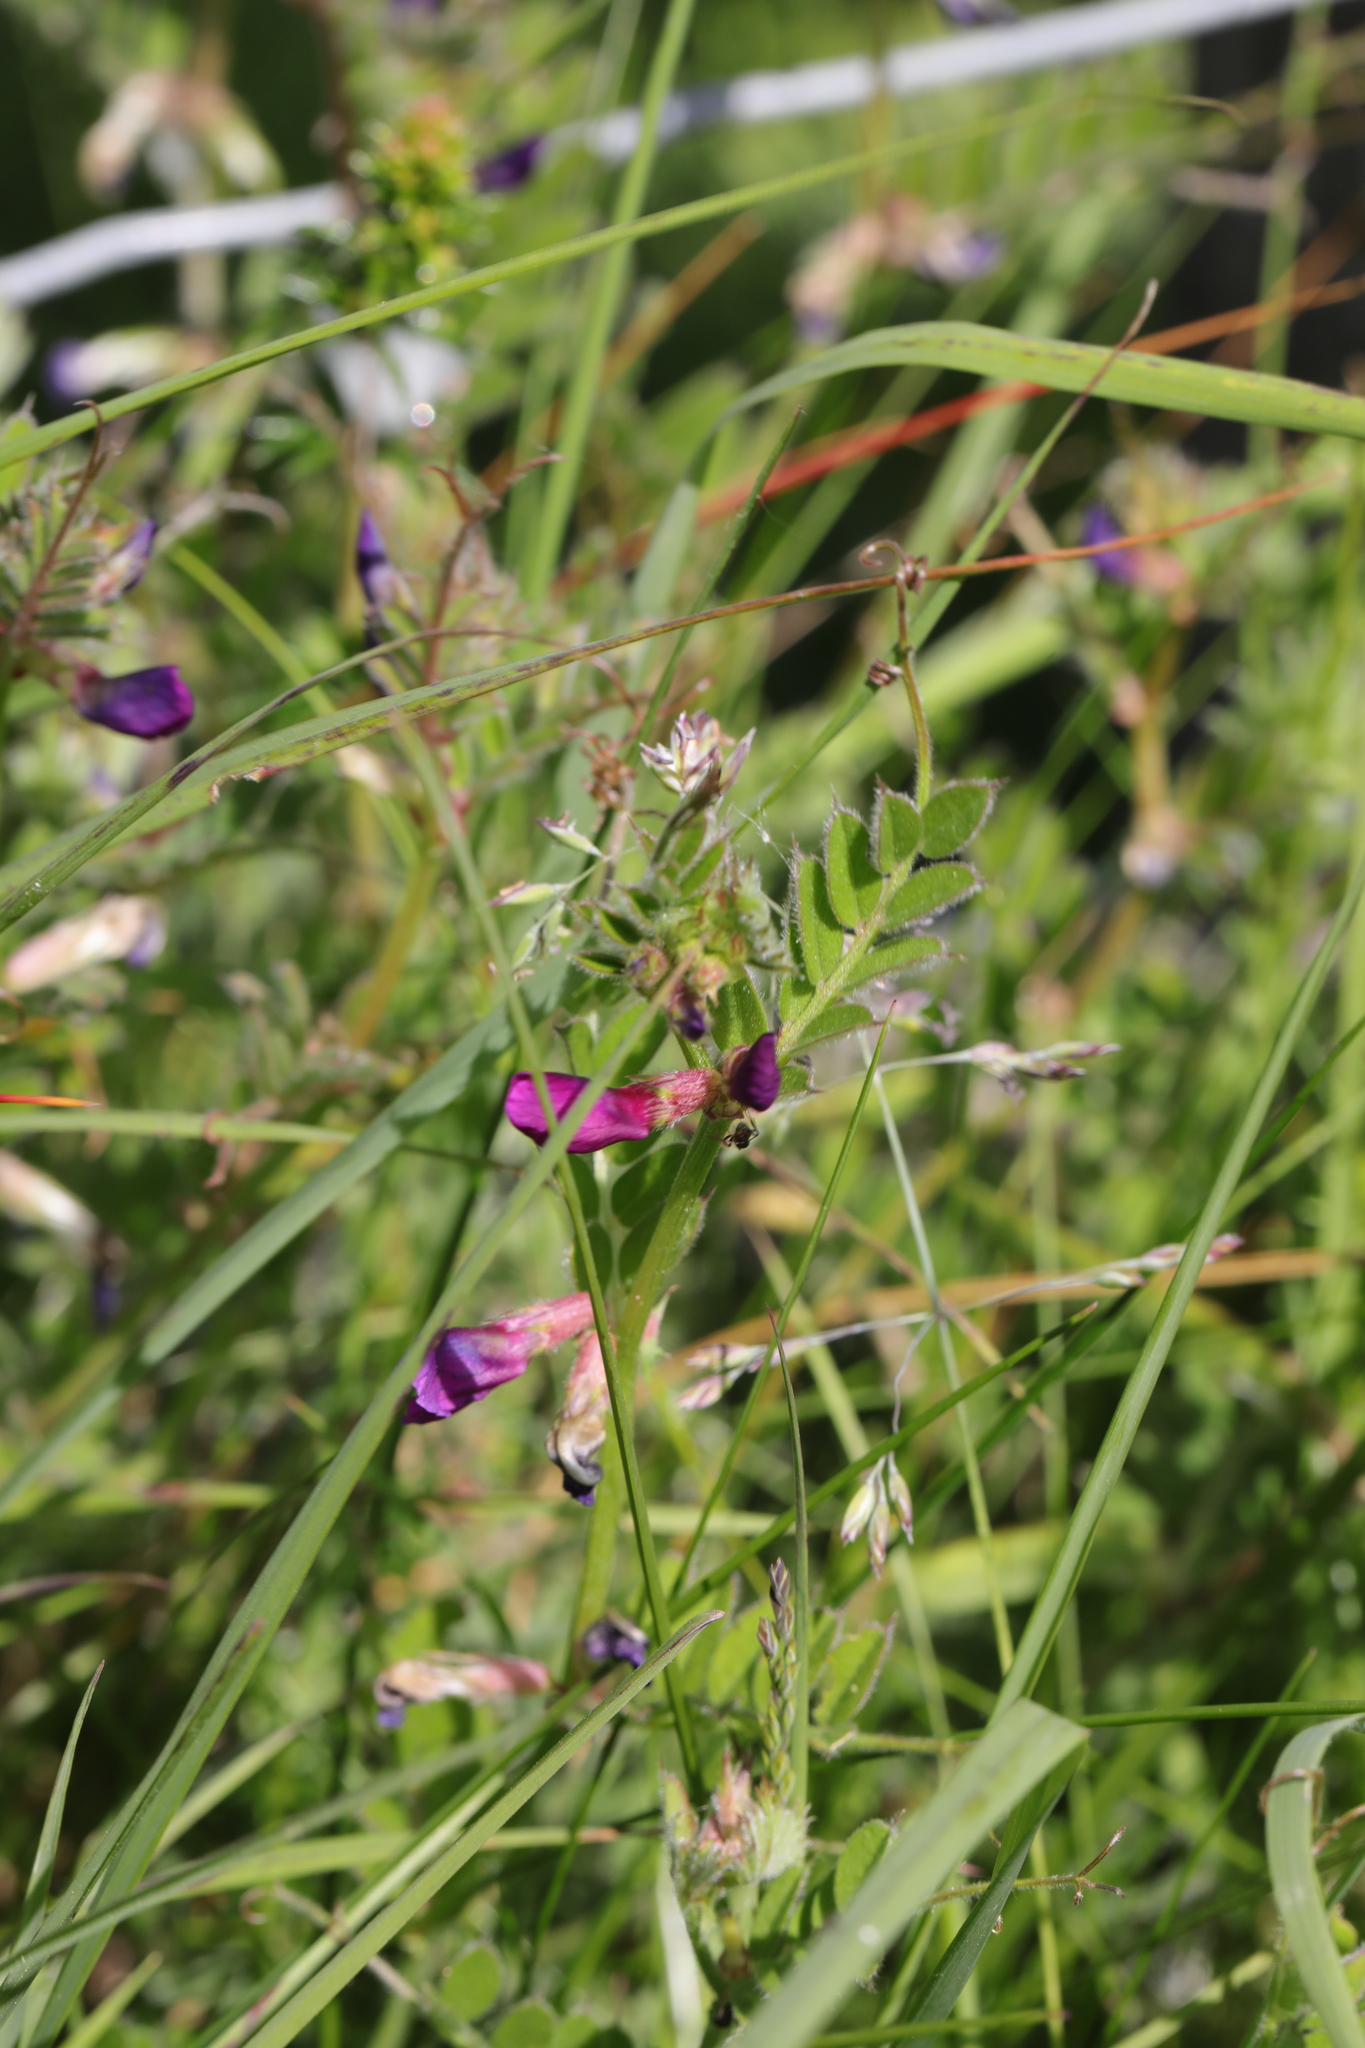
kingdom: Plantae
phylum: Tracheophyta
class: Magnoliopsida
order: Fabales
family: Fabaceae
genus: Vicia
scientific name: Vicia sativa
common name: Garden vetch
